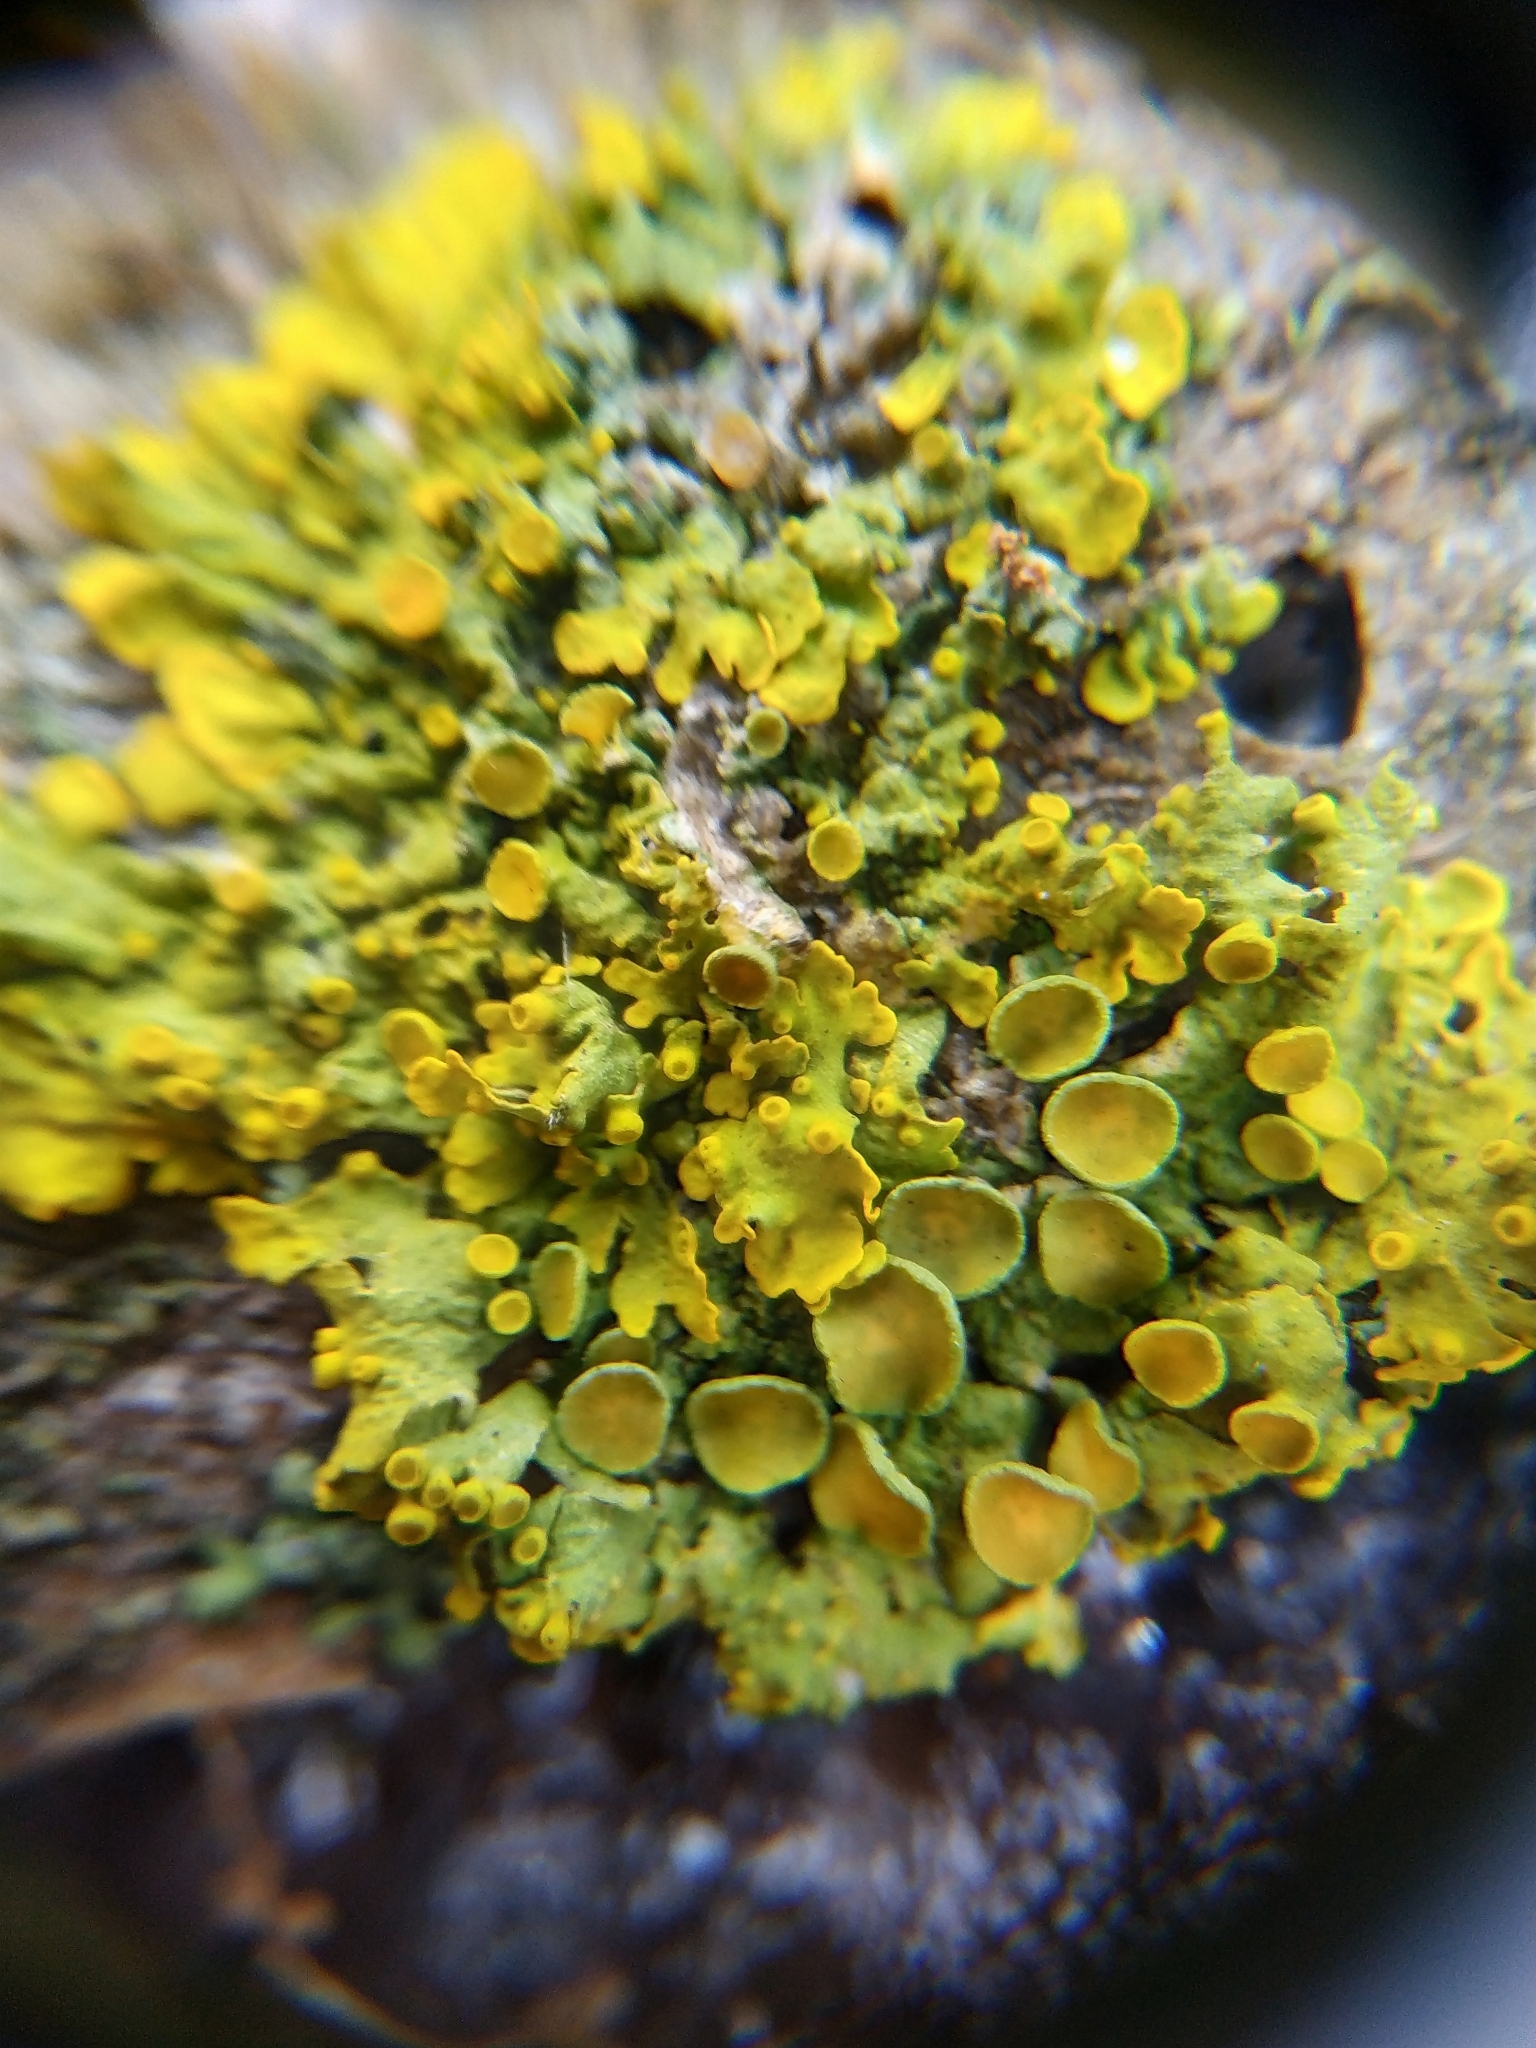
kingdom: Fungi
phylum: Ascomycota
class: Lecanoromycetes
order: Teloschistales
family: Teloschistaceae
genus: Xanthoria
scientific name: Xanthoria parietina
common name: Common orange lichen
